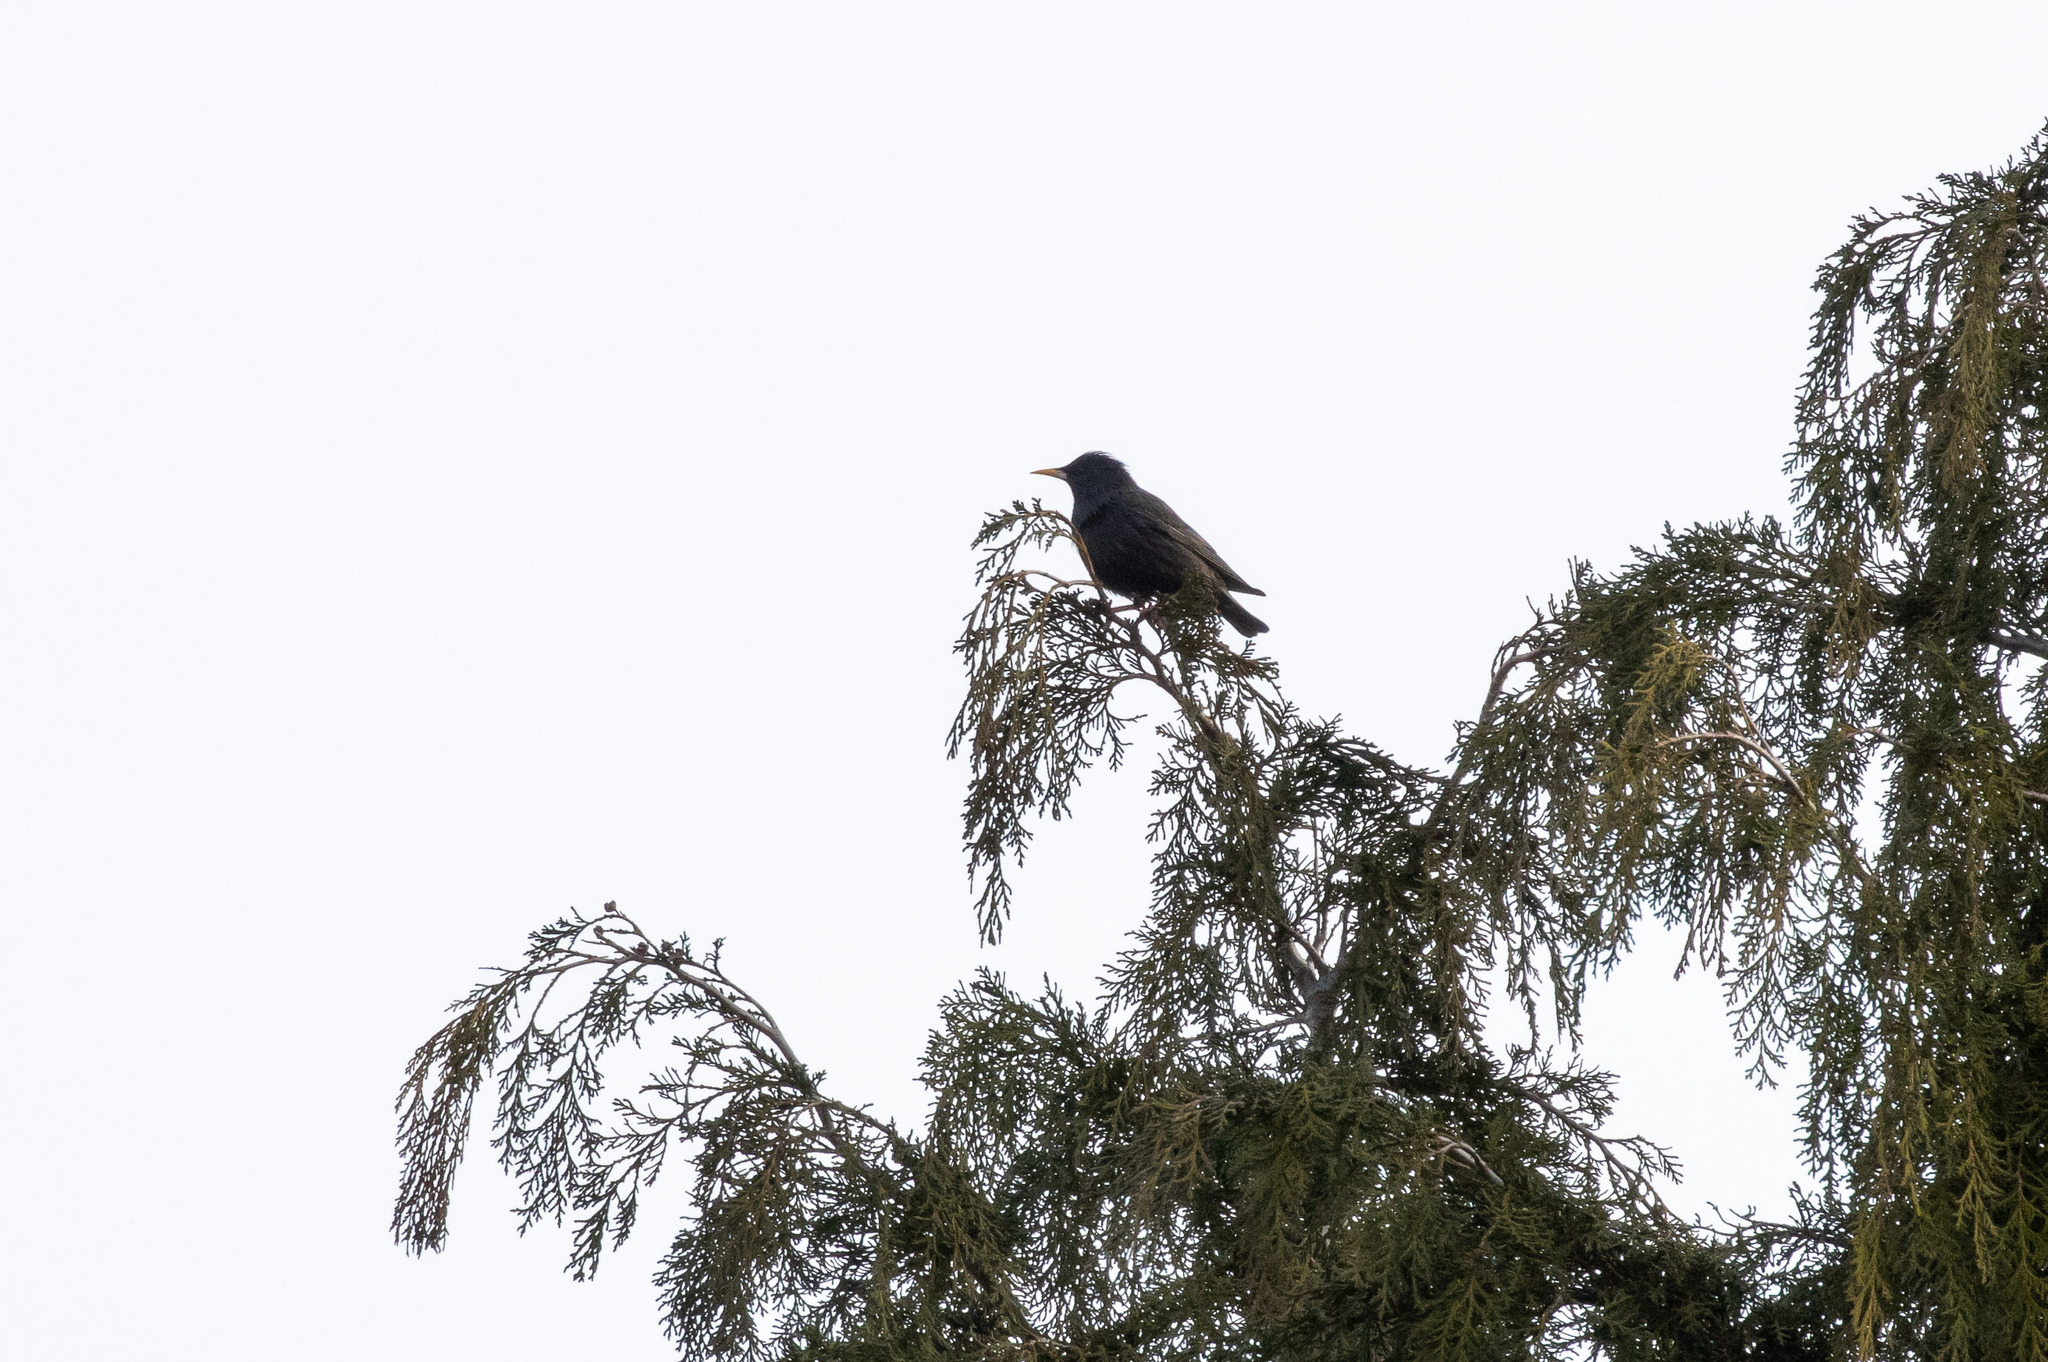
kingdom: Animalia
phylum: Chordata
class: Aves
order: Passeriformes
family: Sturnidae
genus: Sturnus
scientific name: Sturnus unicolor
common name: Spotless starling
